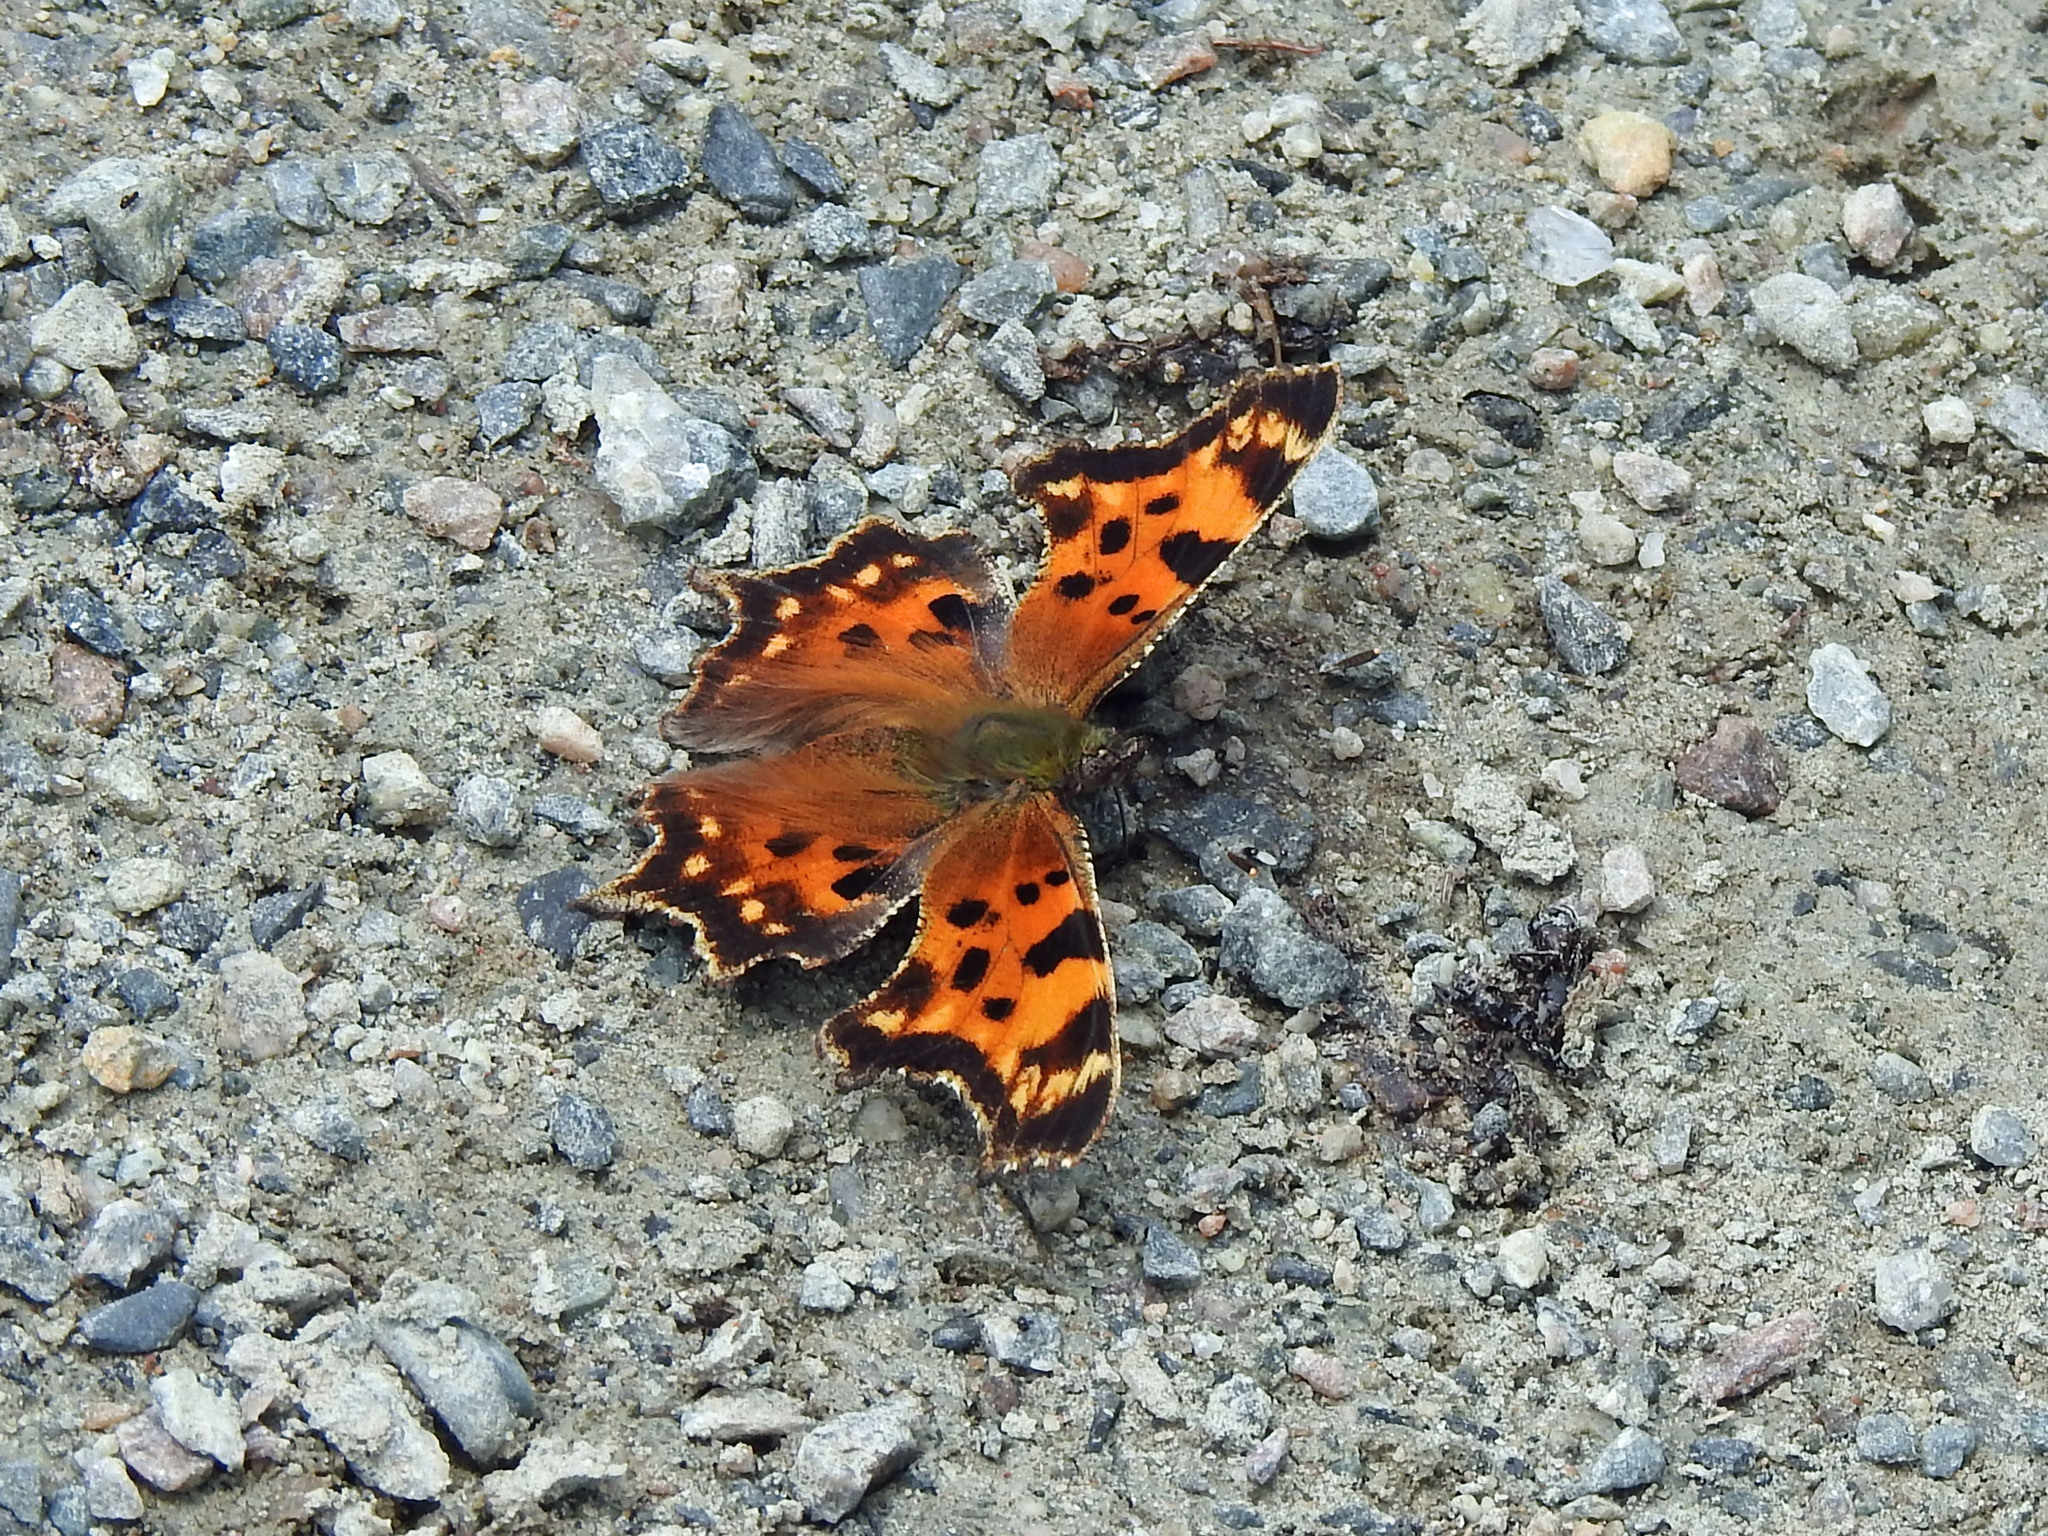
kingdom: Animalia
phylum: Arthropoda
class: Insecta
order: Lepidoptera
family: Nymphalidae
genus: Polygonia
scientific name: Polygonia faunus
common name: Green comma
